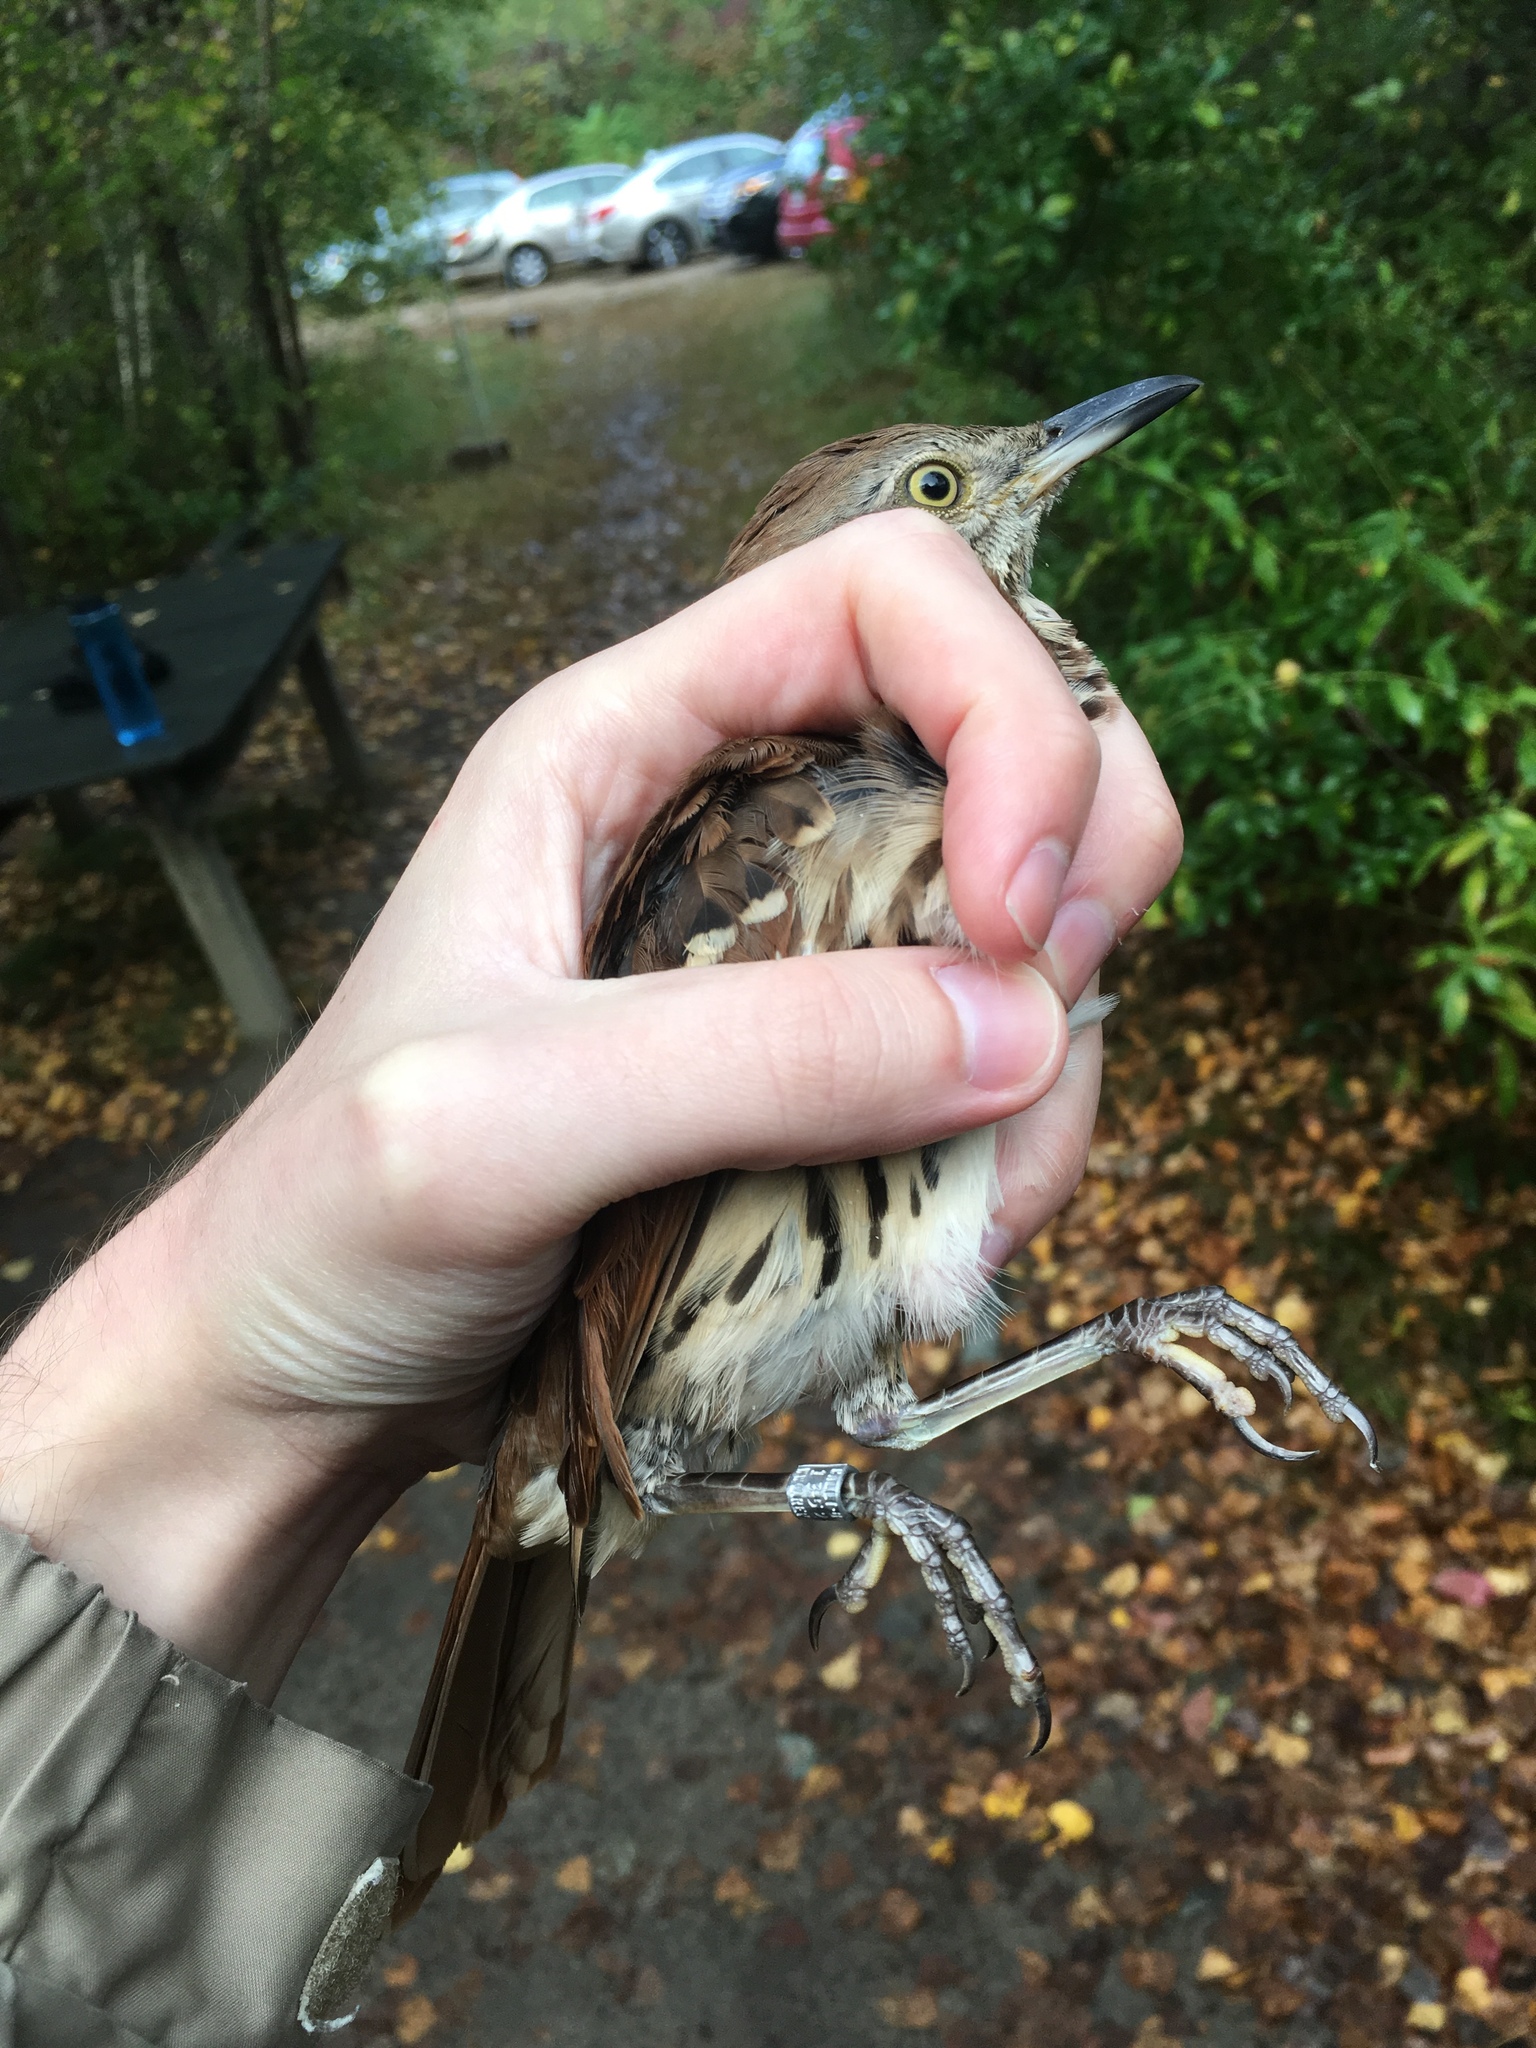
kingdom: Animalia
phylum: Chordata
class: Aves
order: Passeriformes
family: Mimidae
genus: Toxostoma
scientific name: Toxostoma rufum
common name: Brown thrasher
